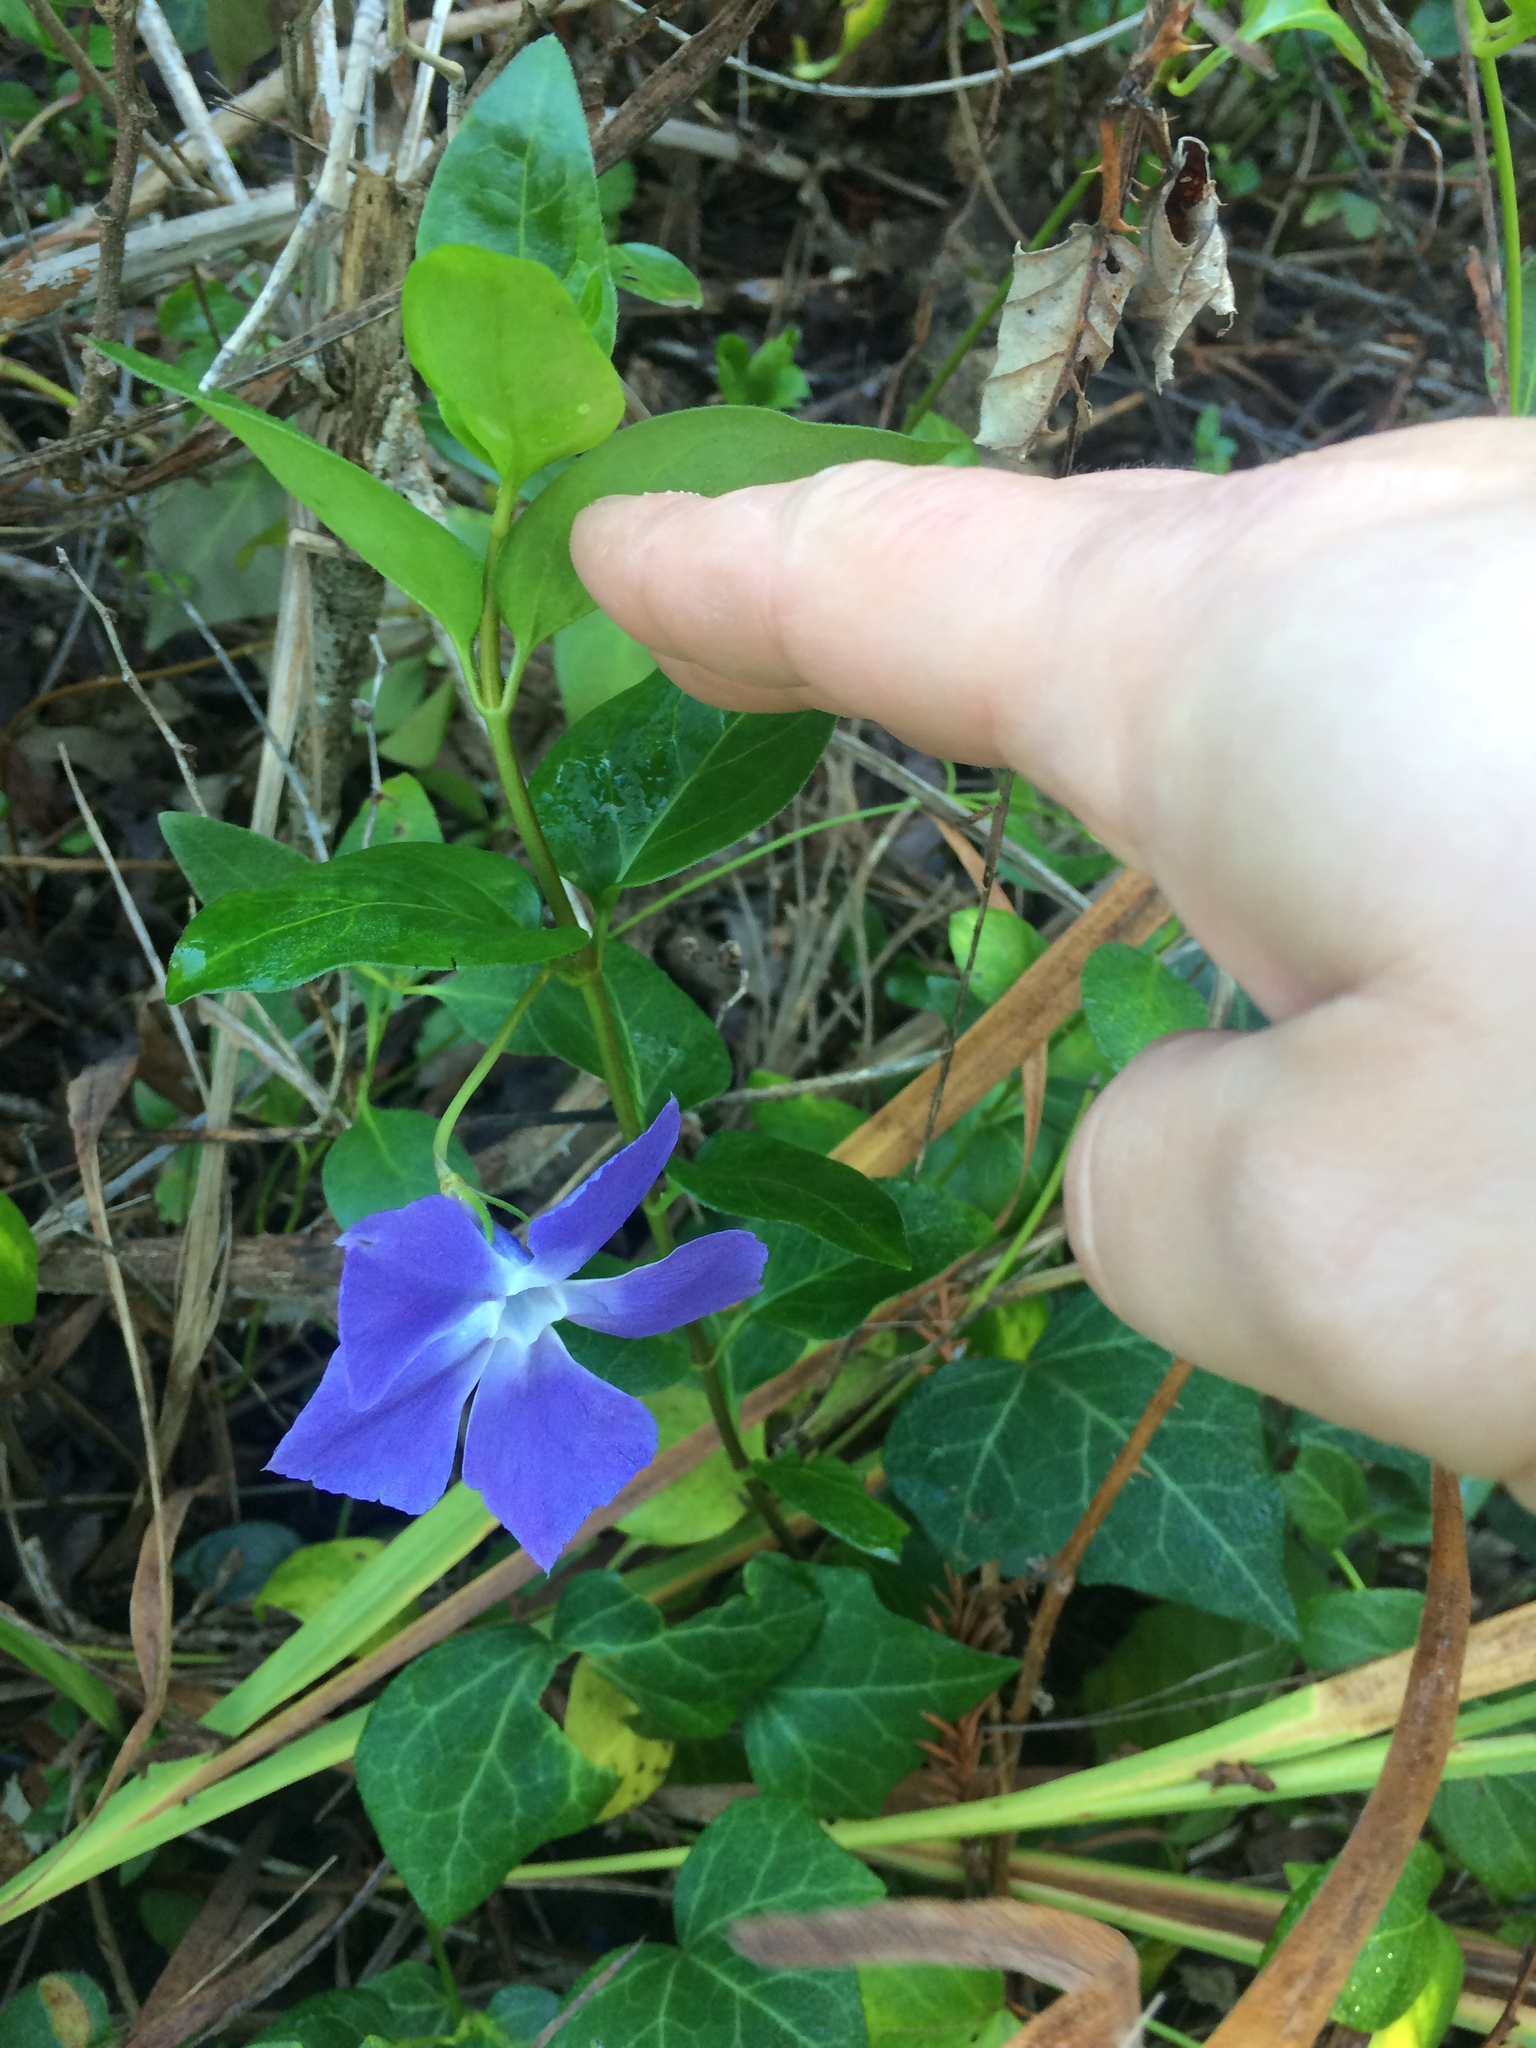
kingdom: Plantae
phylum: Tracheophyta
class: Magnoliopsida
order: Gentianales
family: Apocynaceae
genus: Vinca
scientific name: Vinca major
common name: Greater periwinkle
